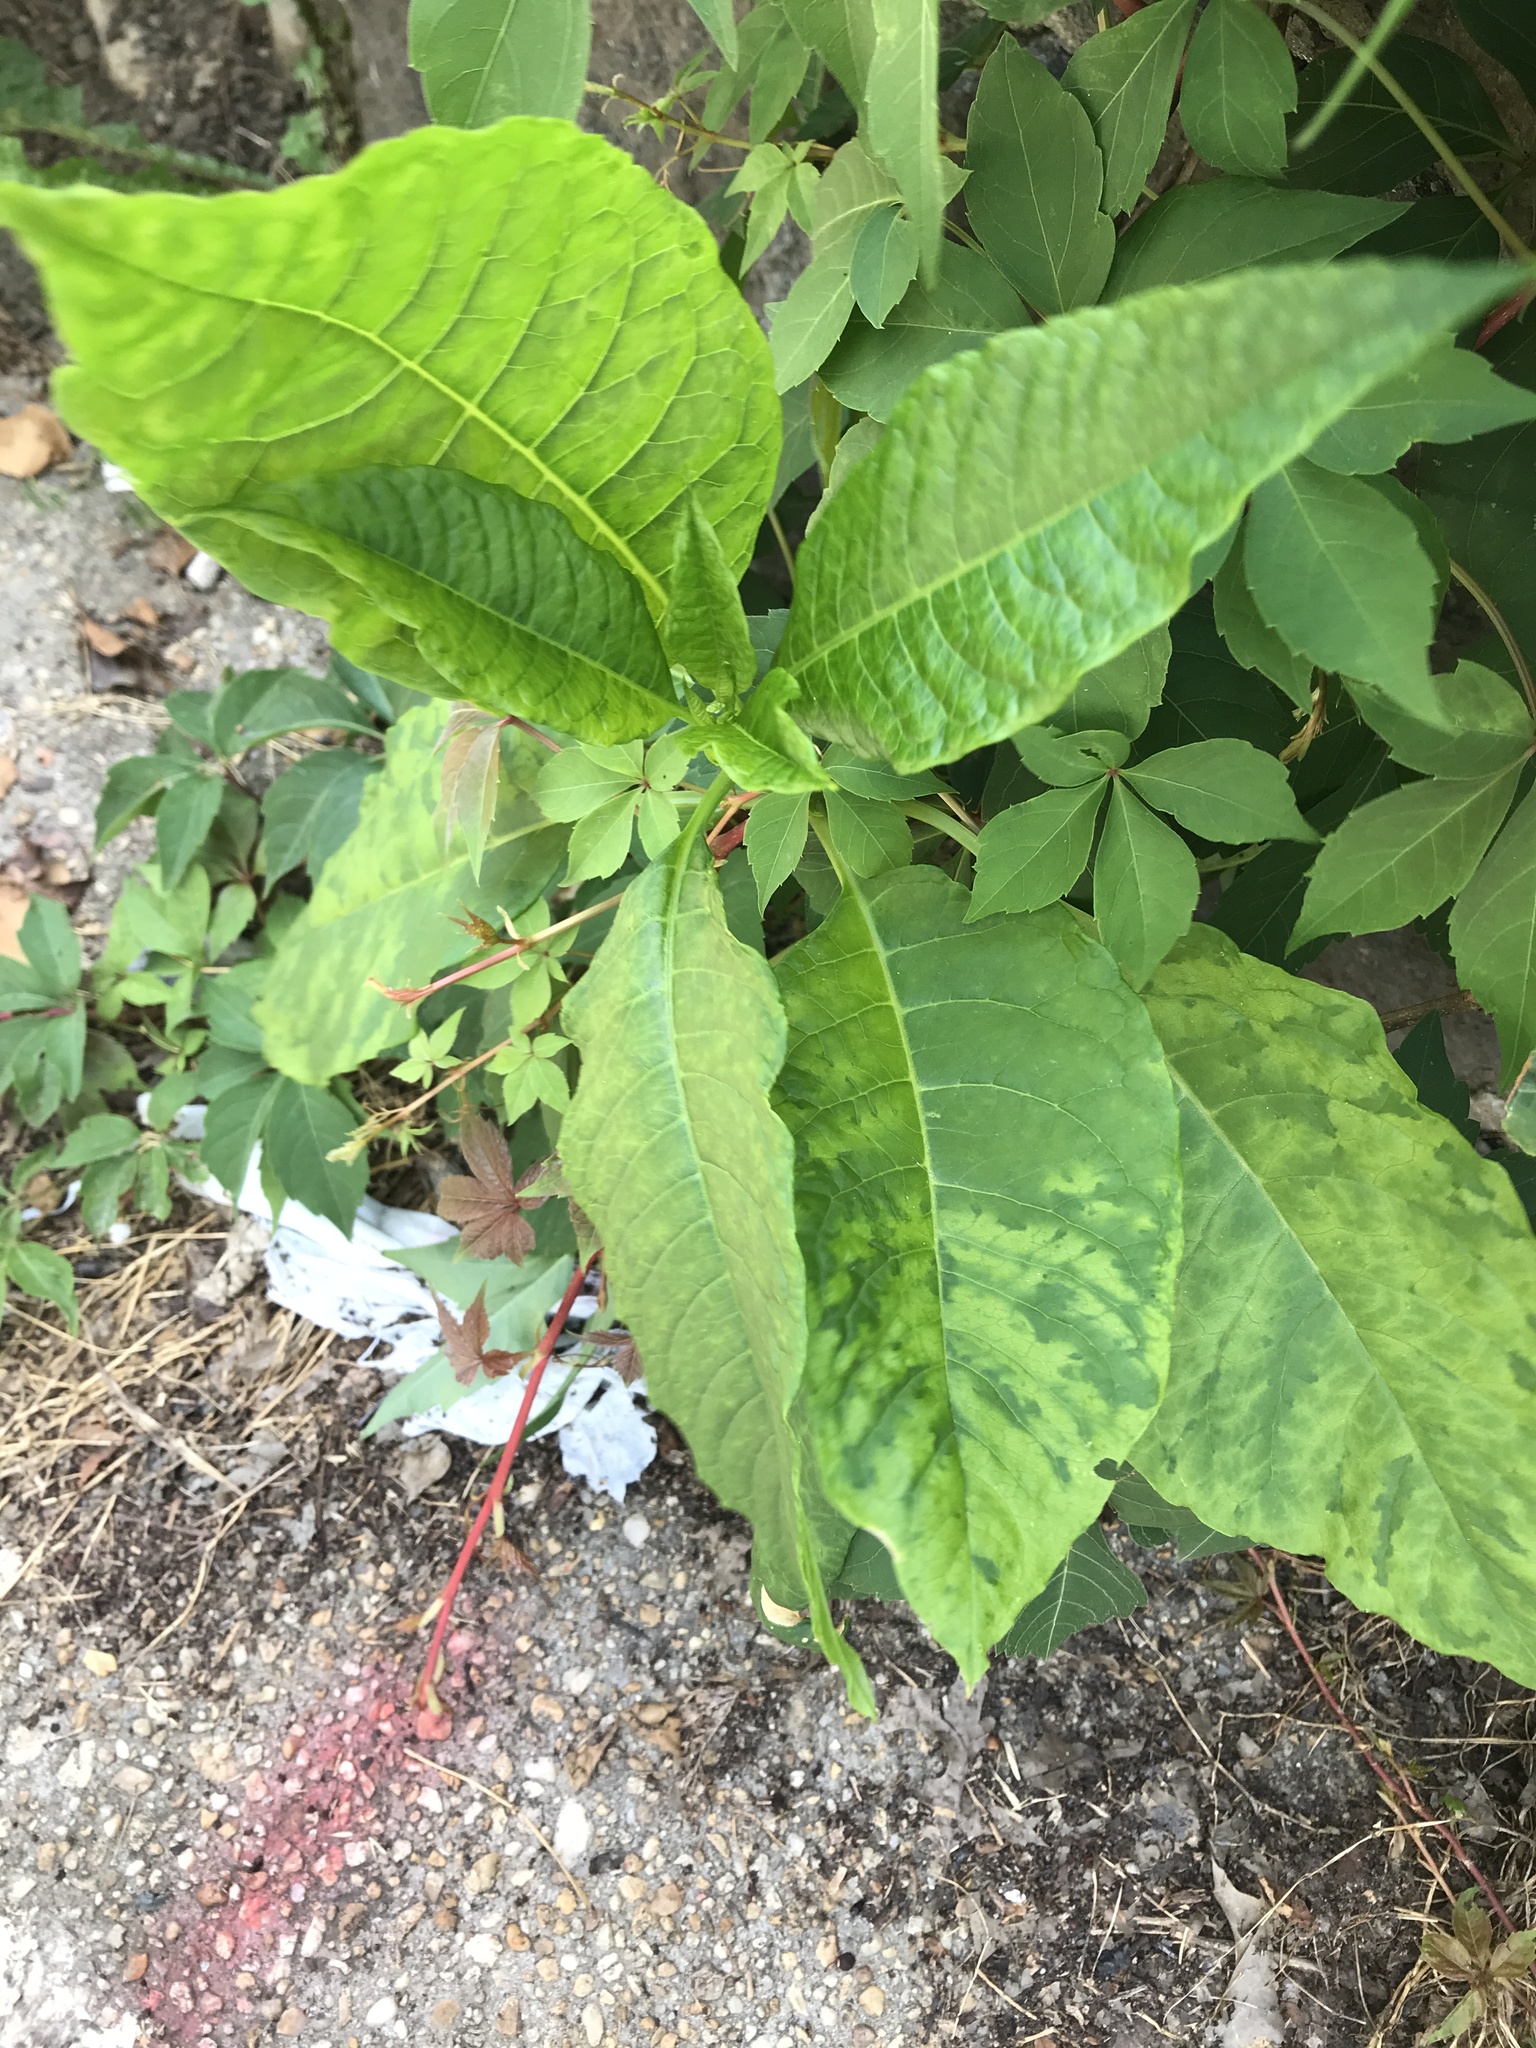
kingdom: Plantae
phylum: Tracheophyta
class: Magnoliopsida
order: Caryophyllales
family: Phytolaccaceae
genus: Phytolacca
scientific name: Phytolacca americana
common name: American pokeweed
